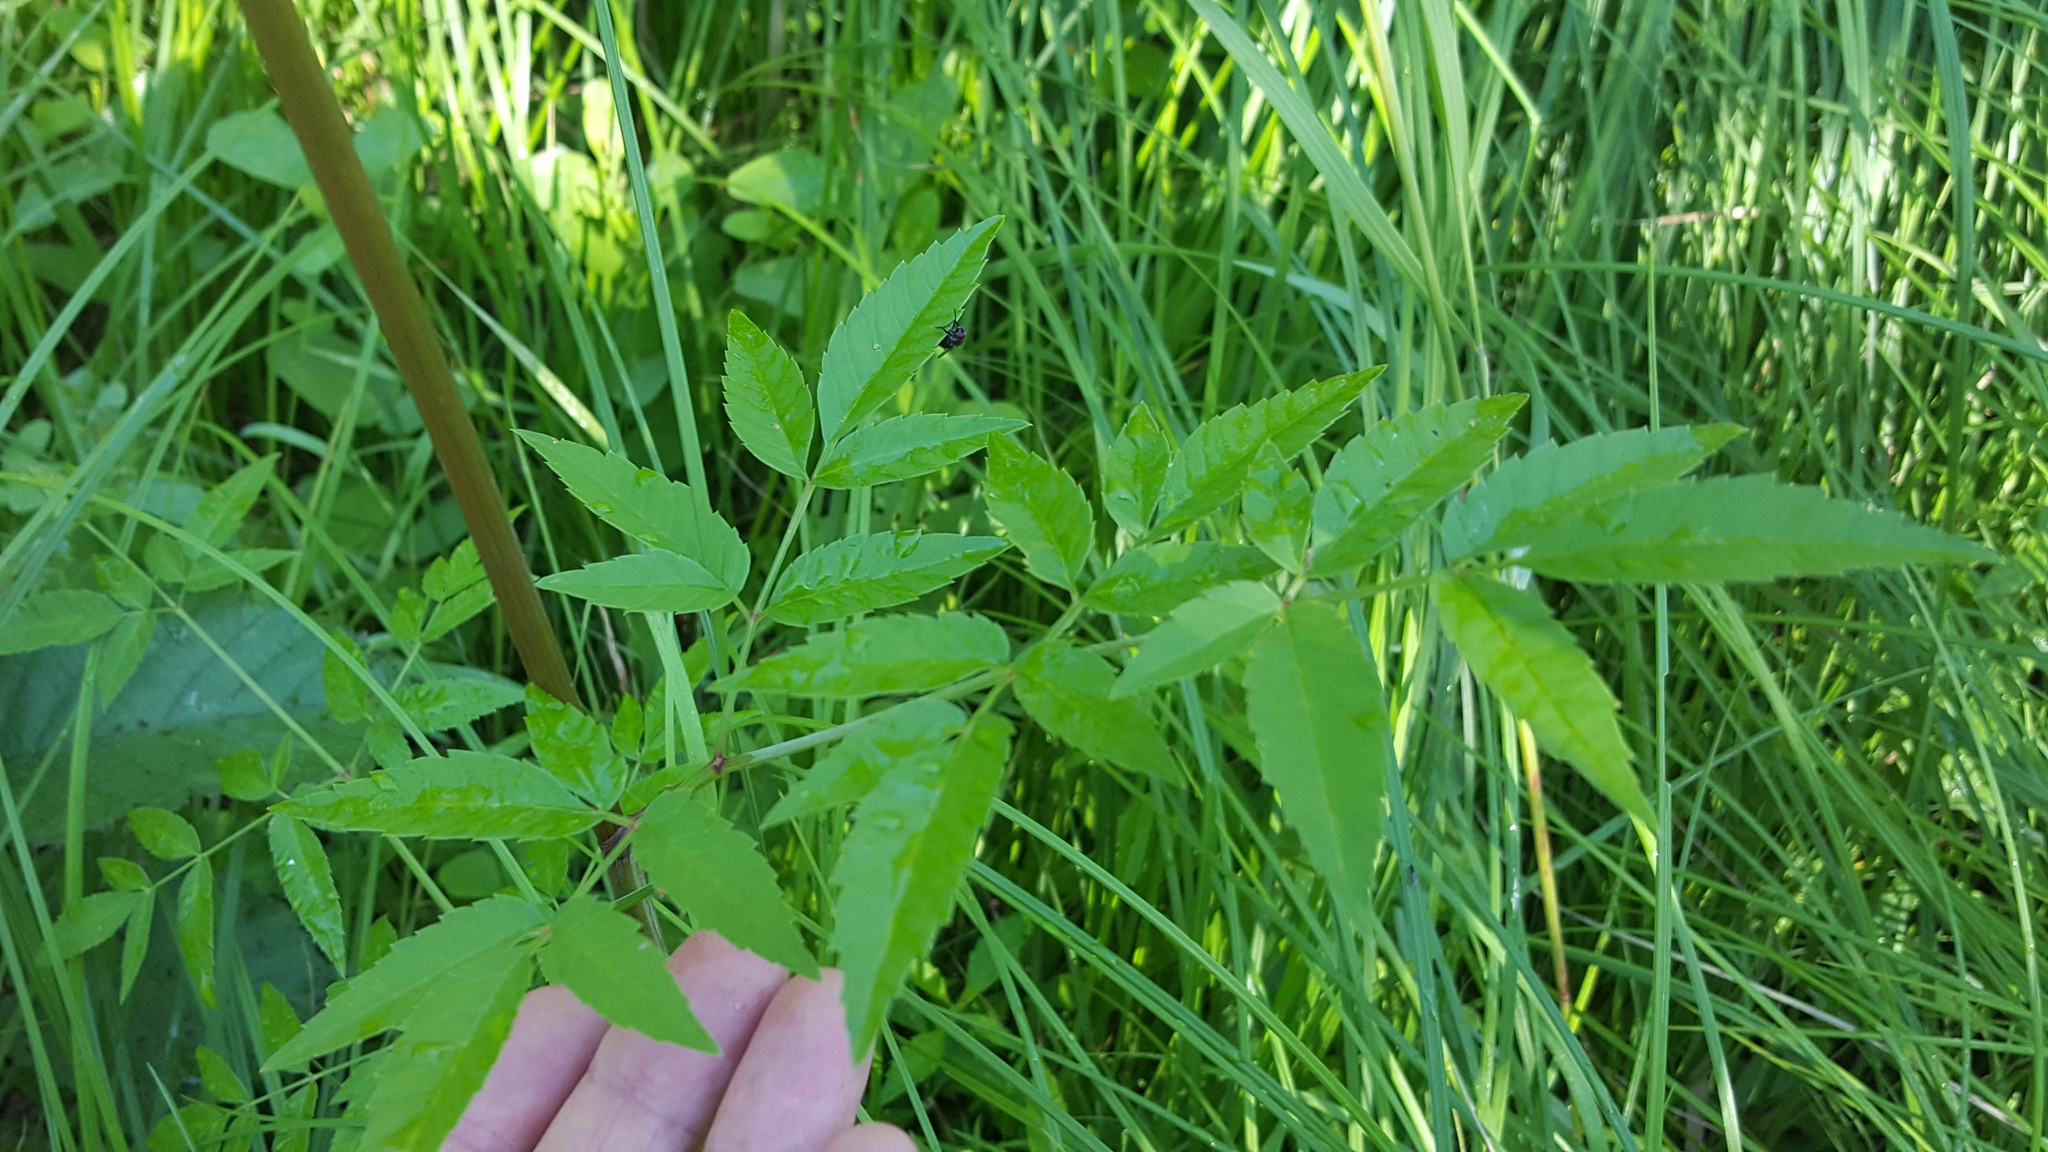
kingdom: Plantae
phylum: Tracheophyta
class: Magnoliopsida
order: Apiales
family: Apiaceae
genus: Cicuta
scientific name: Cicuta maculata
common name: Spotted cowbane
